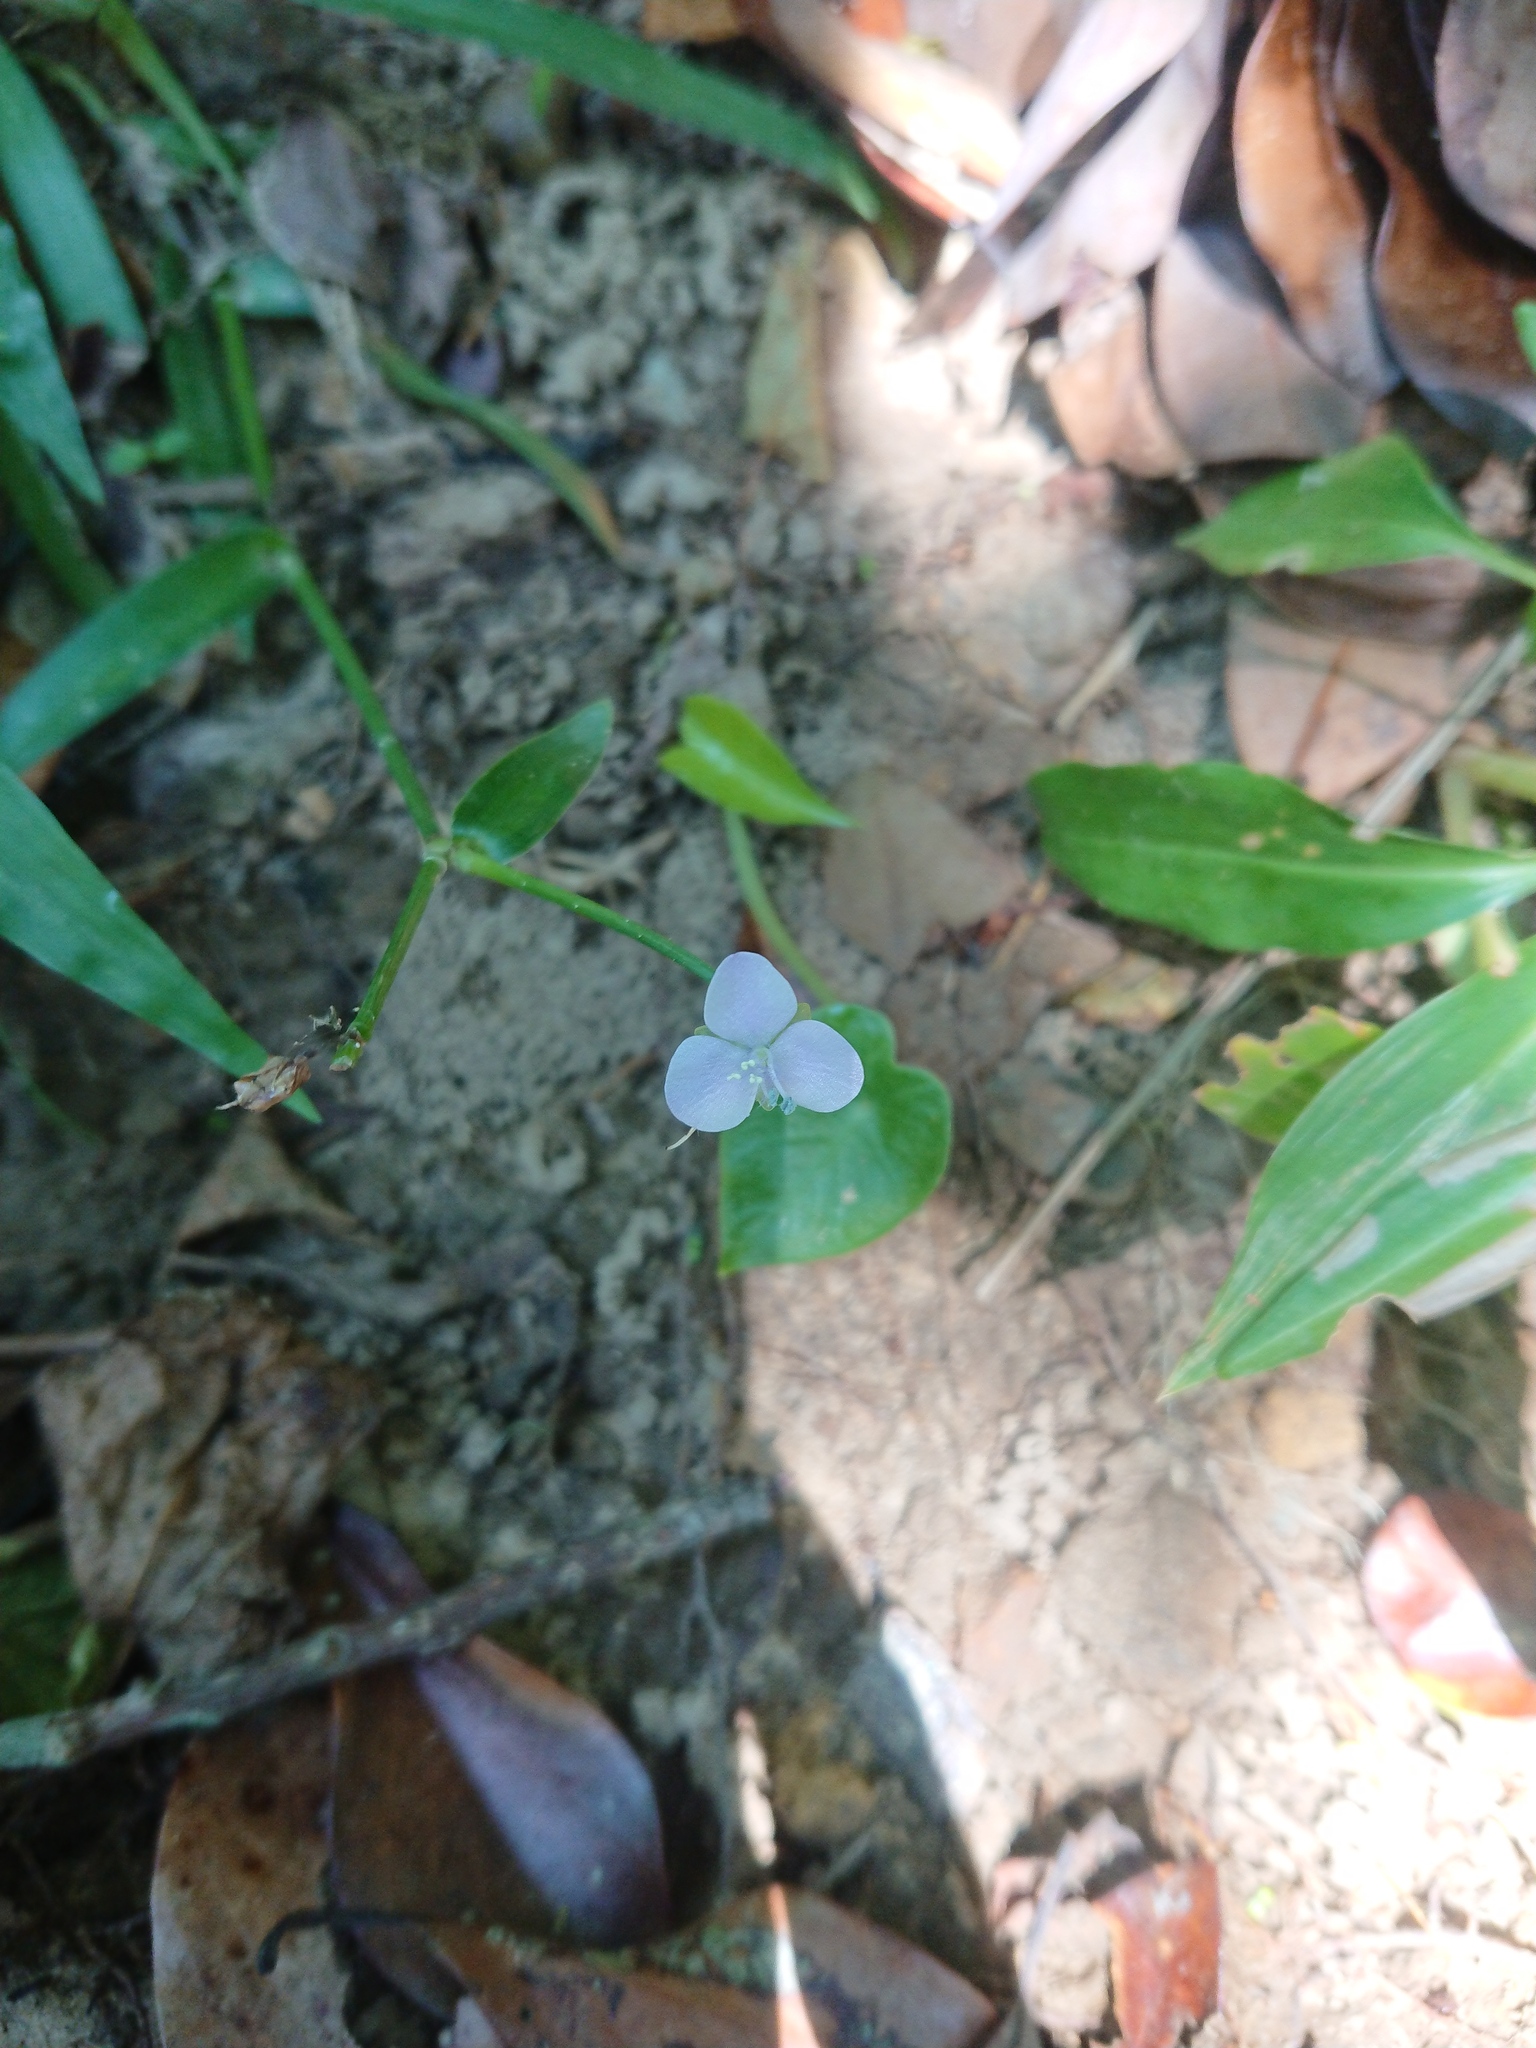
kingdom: Plantae
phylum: Tracheophyta
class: Liliopsida
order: Commelinales
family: Commelinaceae
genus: Murdannia
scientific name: Murdannia loriformis
